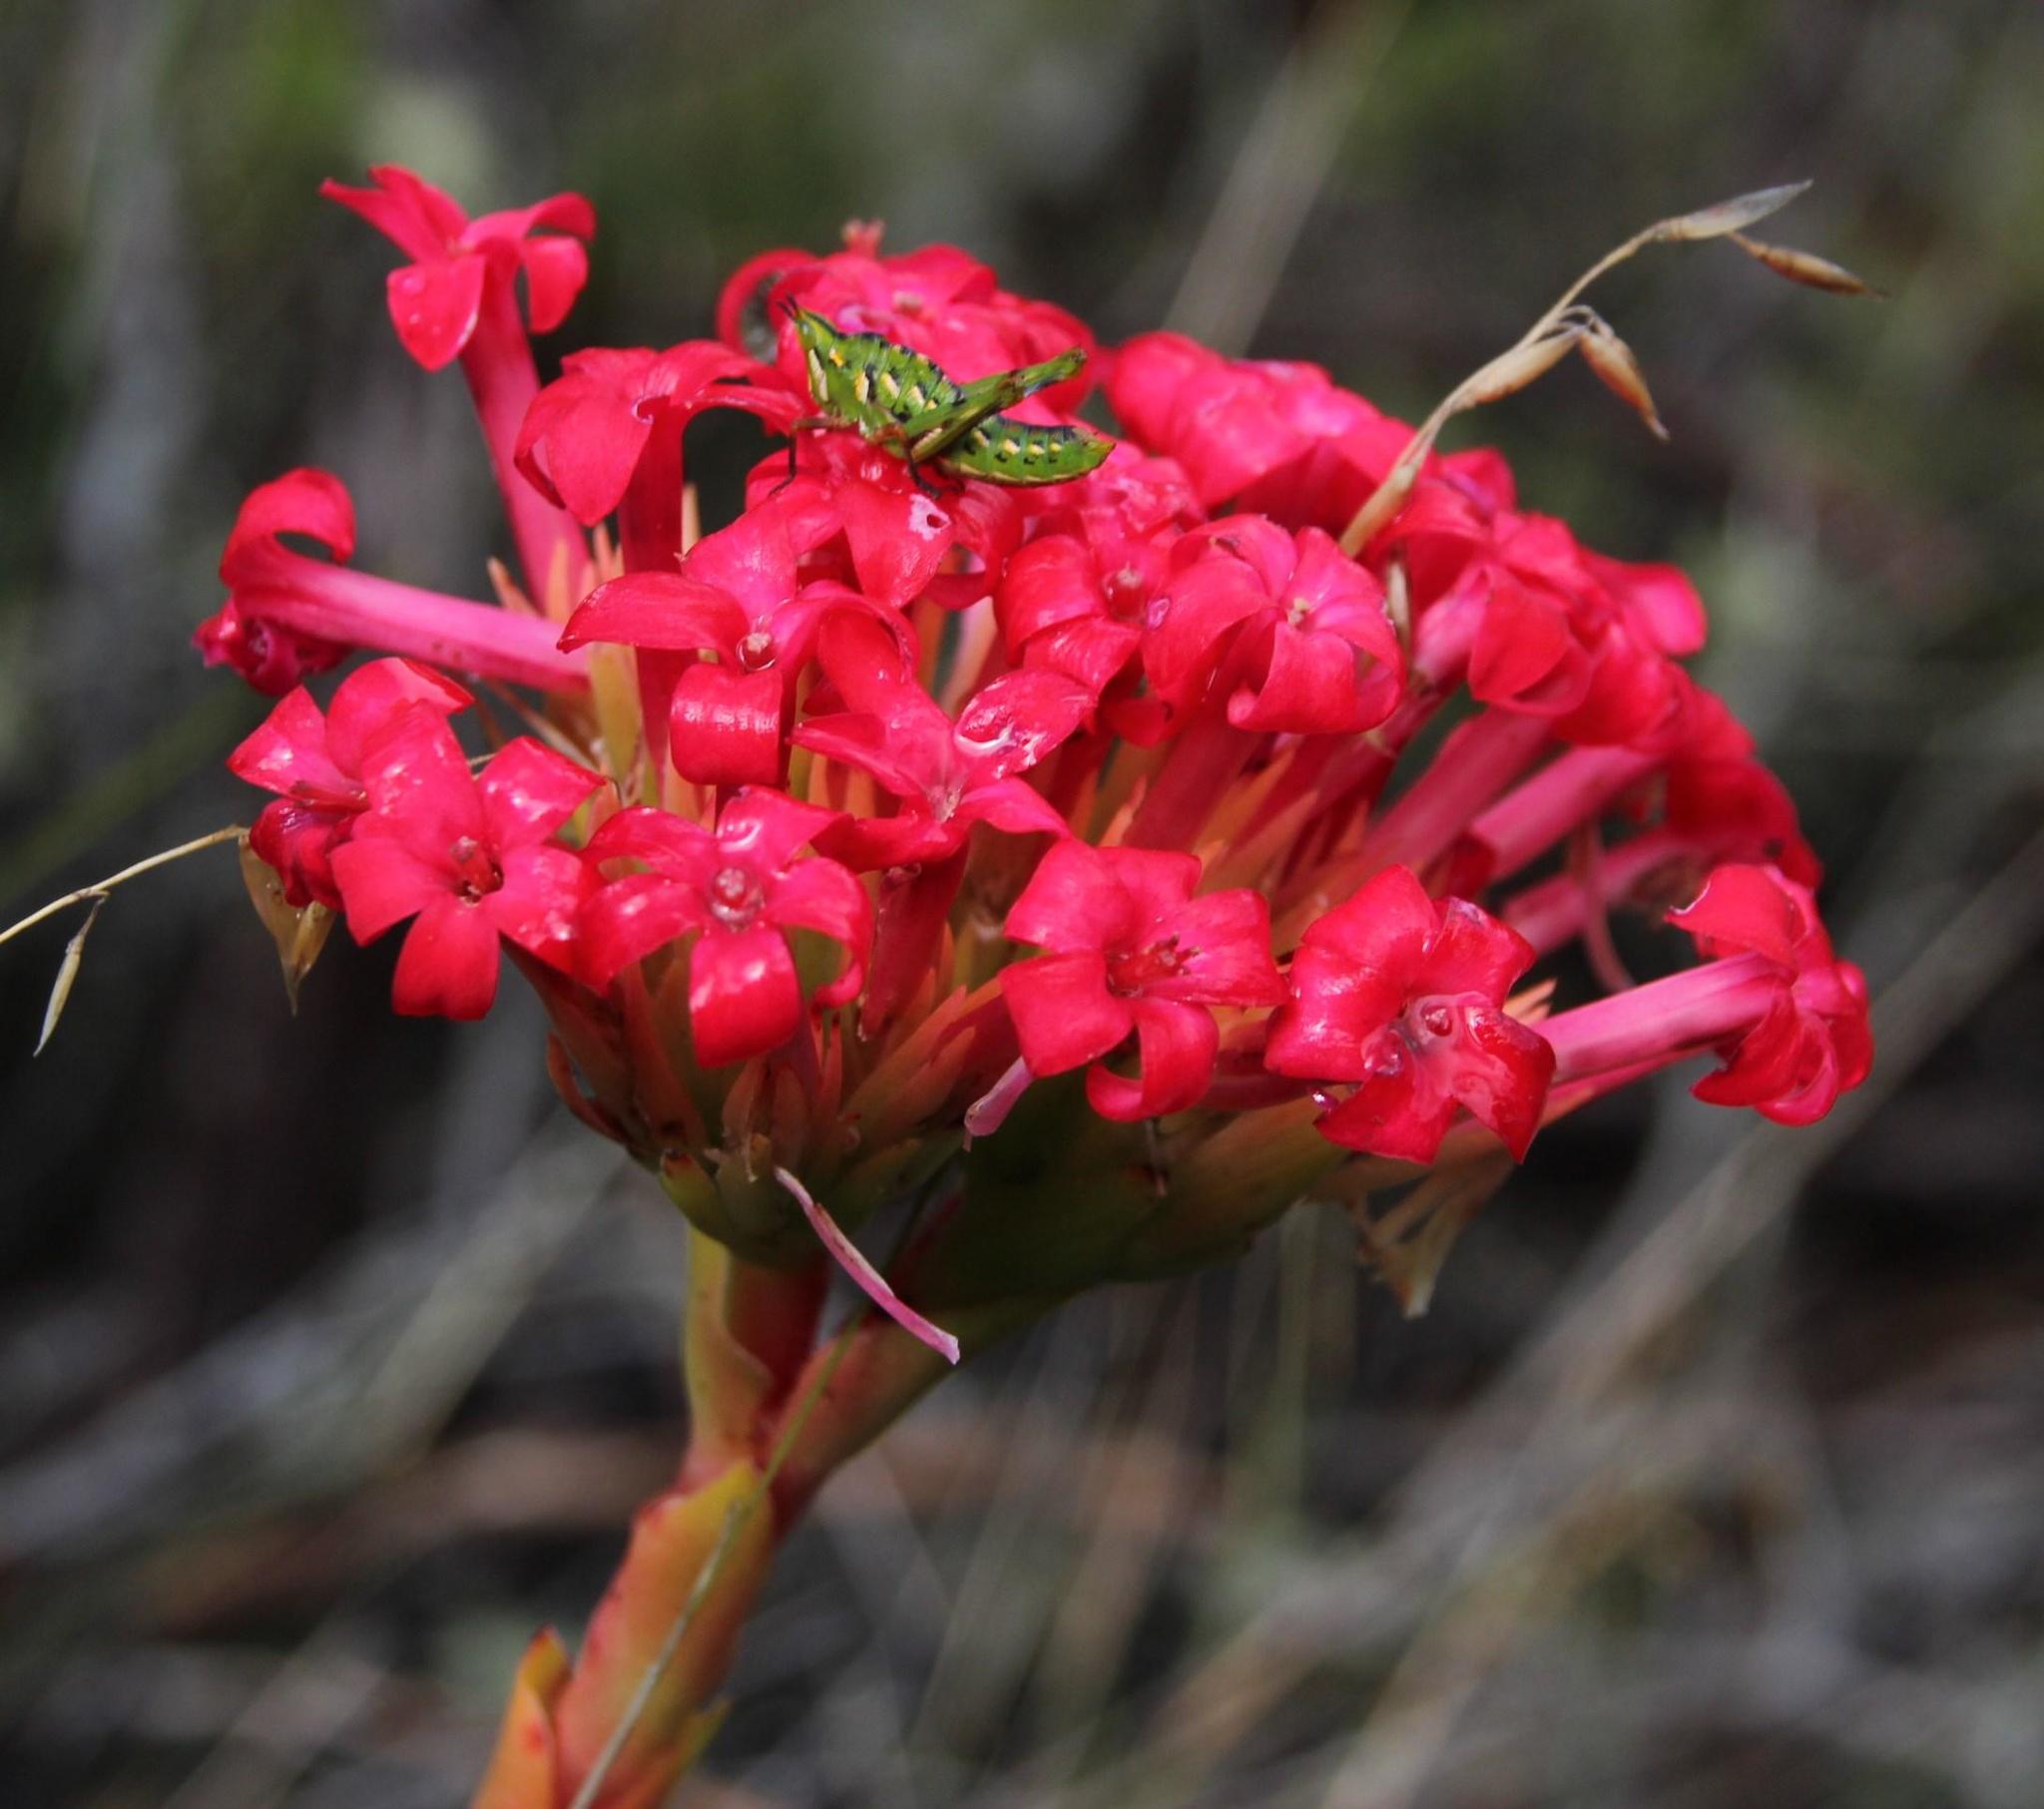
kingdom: Plantae
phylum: Tracheophyta
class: Magnoliopsida
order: Saxifragales
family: Crassulaceae
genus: Crassula
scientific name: Crassula coccinea
